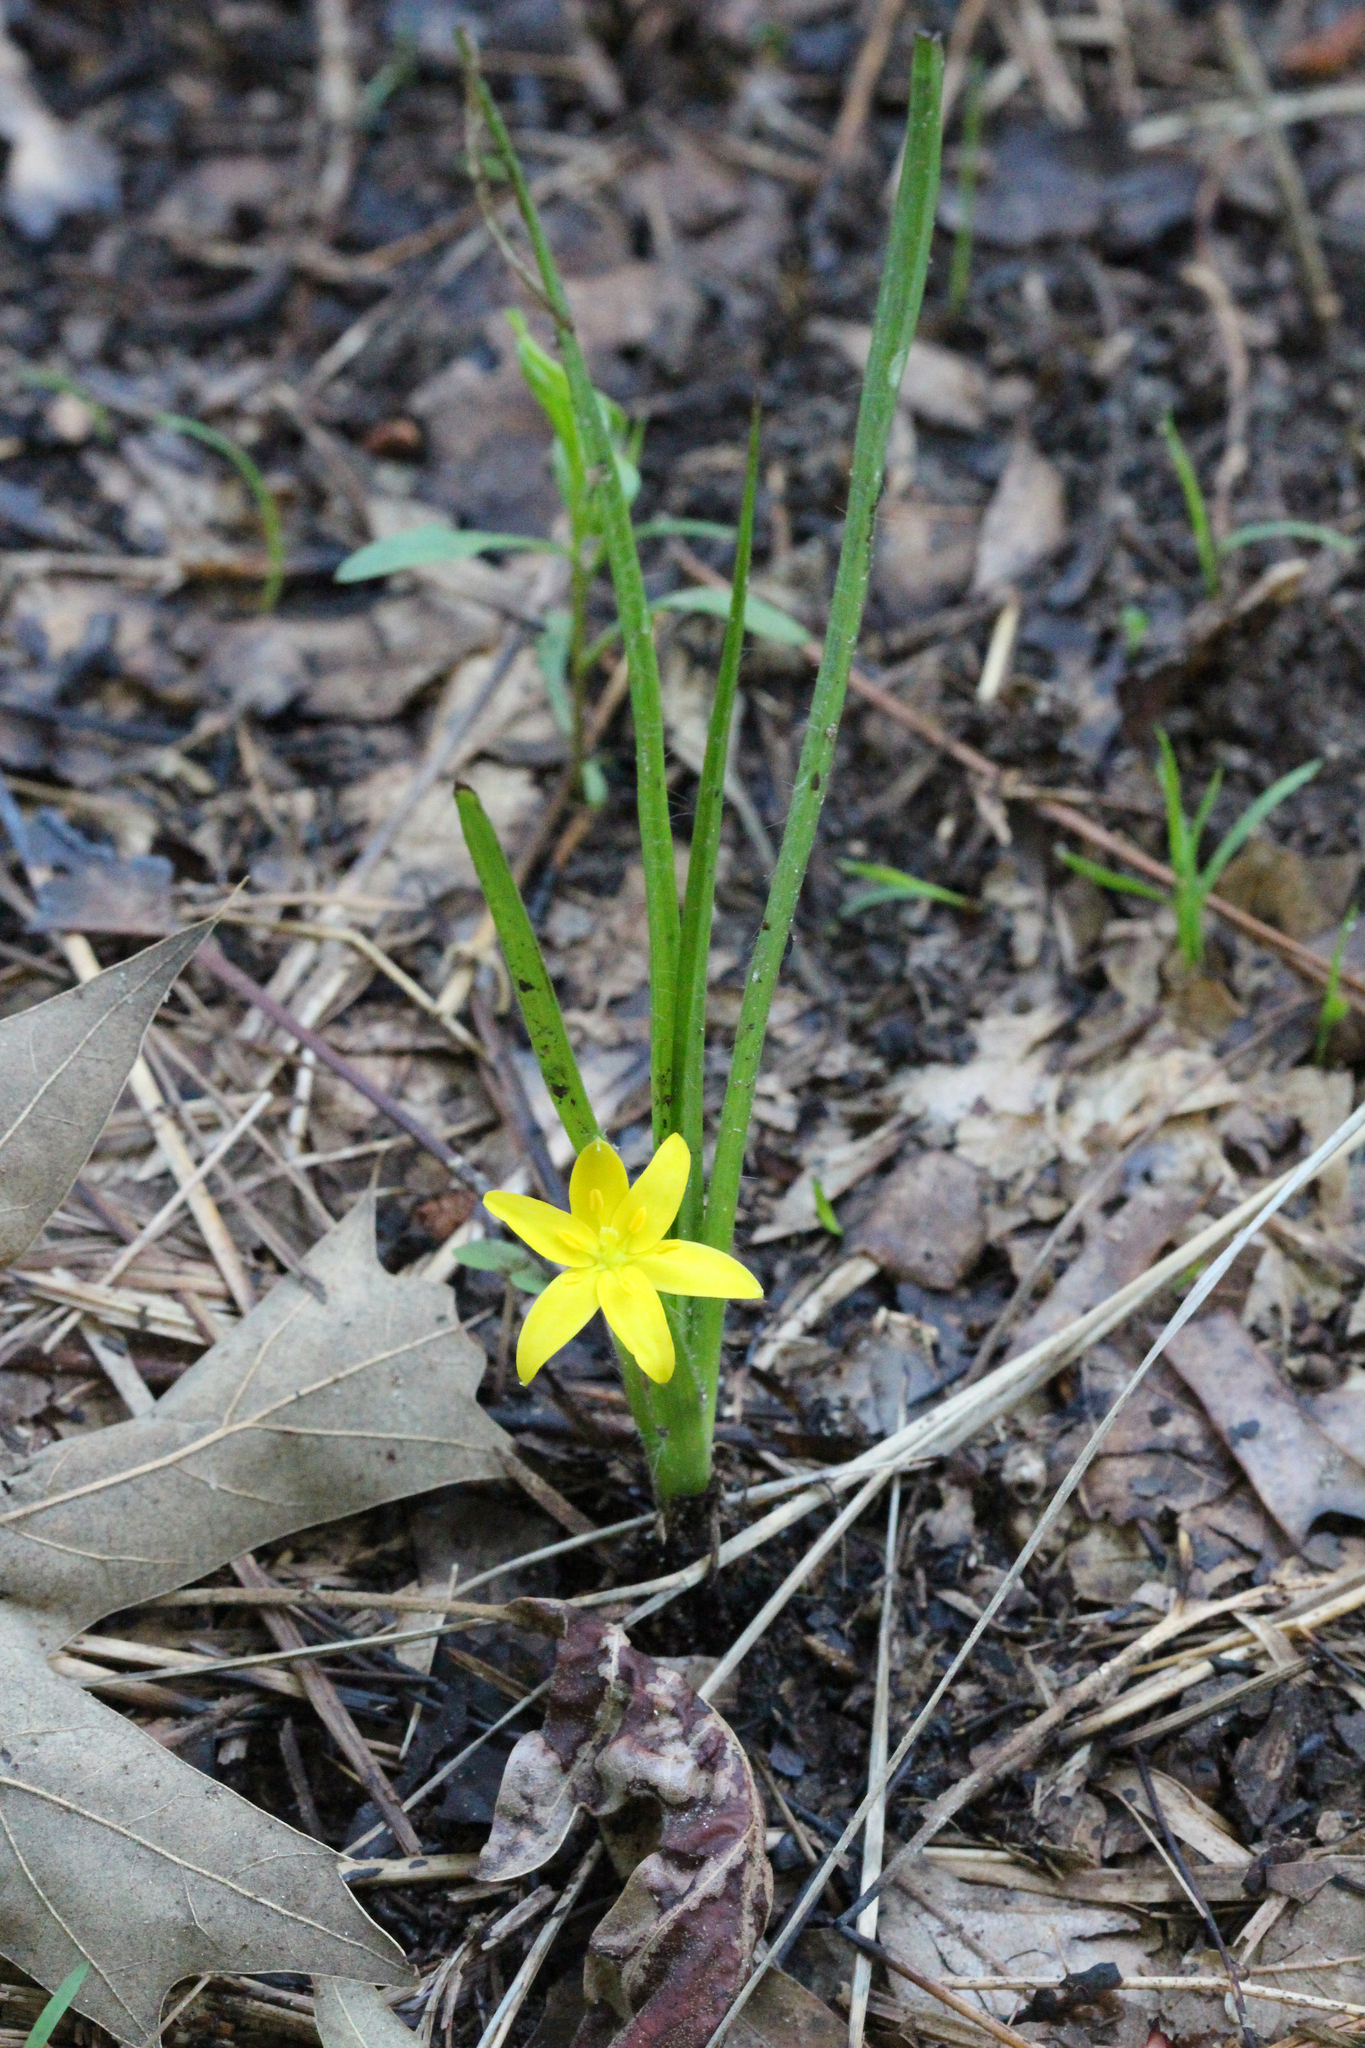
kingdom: Plantae
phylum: Tracheophyta
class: Liliopsida
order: Asparagales
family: Hypoxidaceae
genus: Hypoxis
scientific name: Hypoxis hirsuta
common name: Common goldstar
